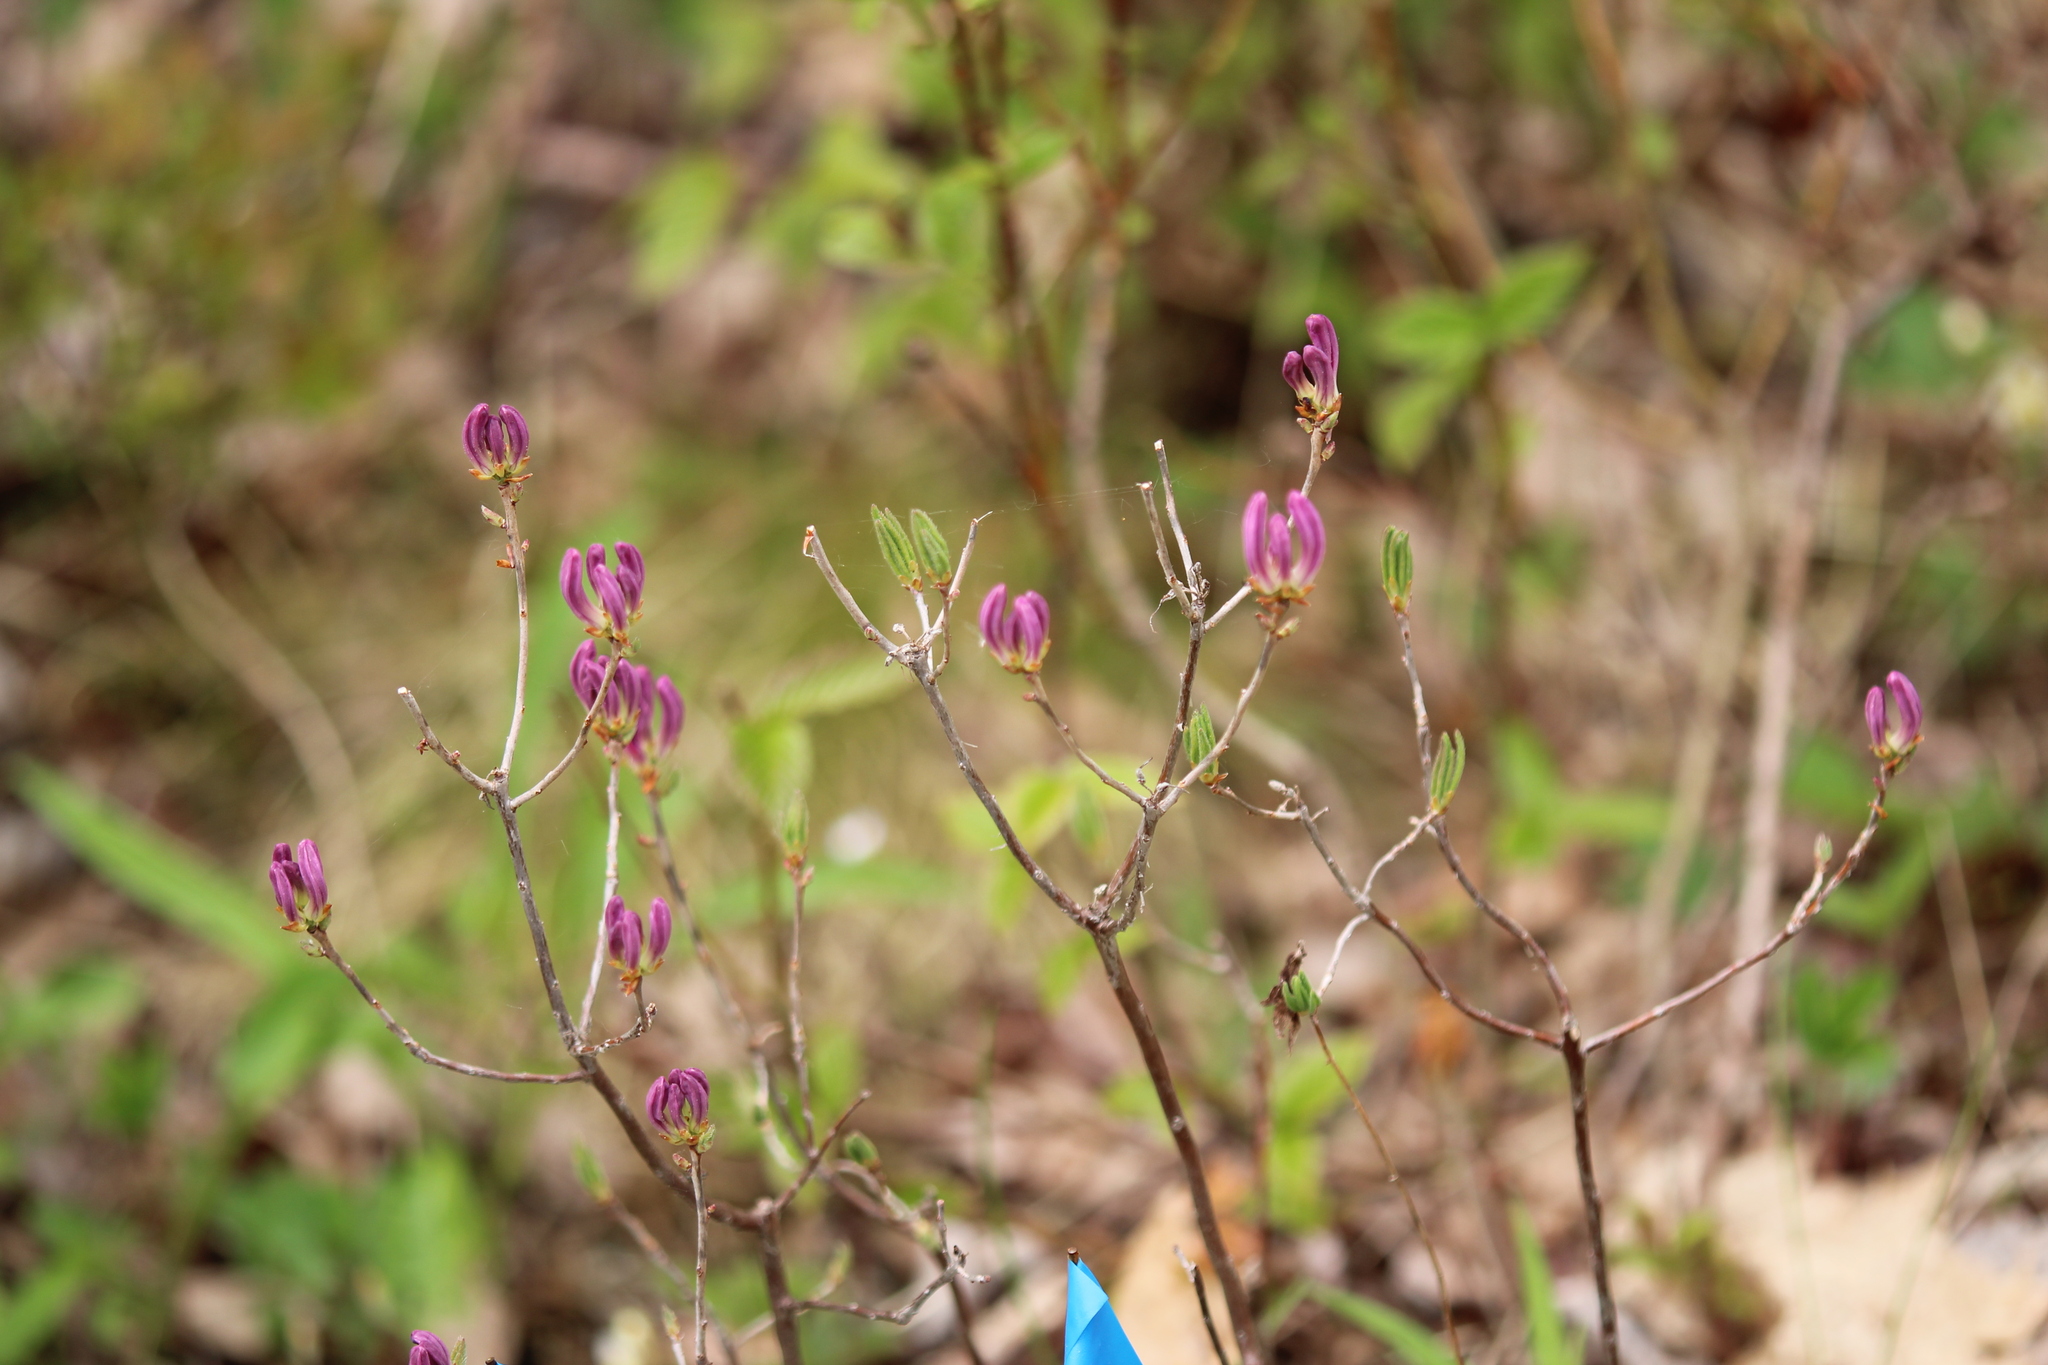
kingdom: Plantae
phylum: Tracheophyta
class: Magnoliopsida
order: Ericales
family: Ericaceae
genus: Rhododendron
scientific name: Rhododendron canadense
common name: Rhodora
